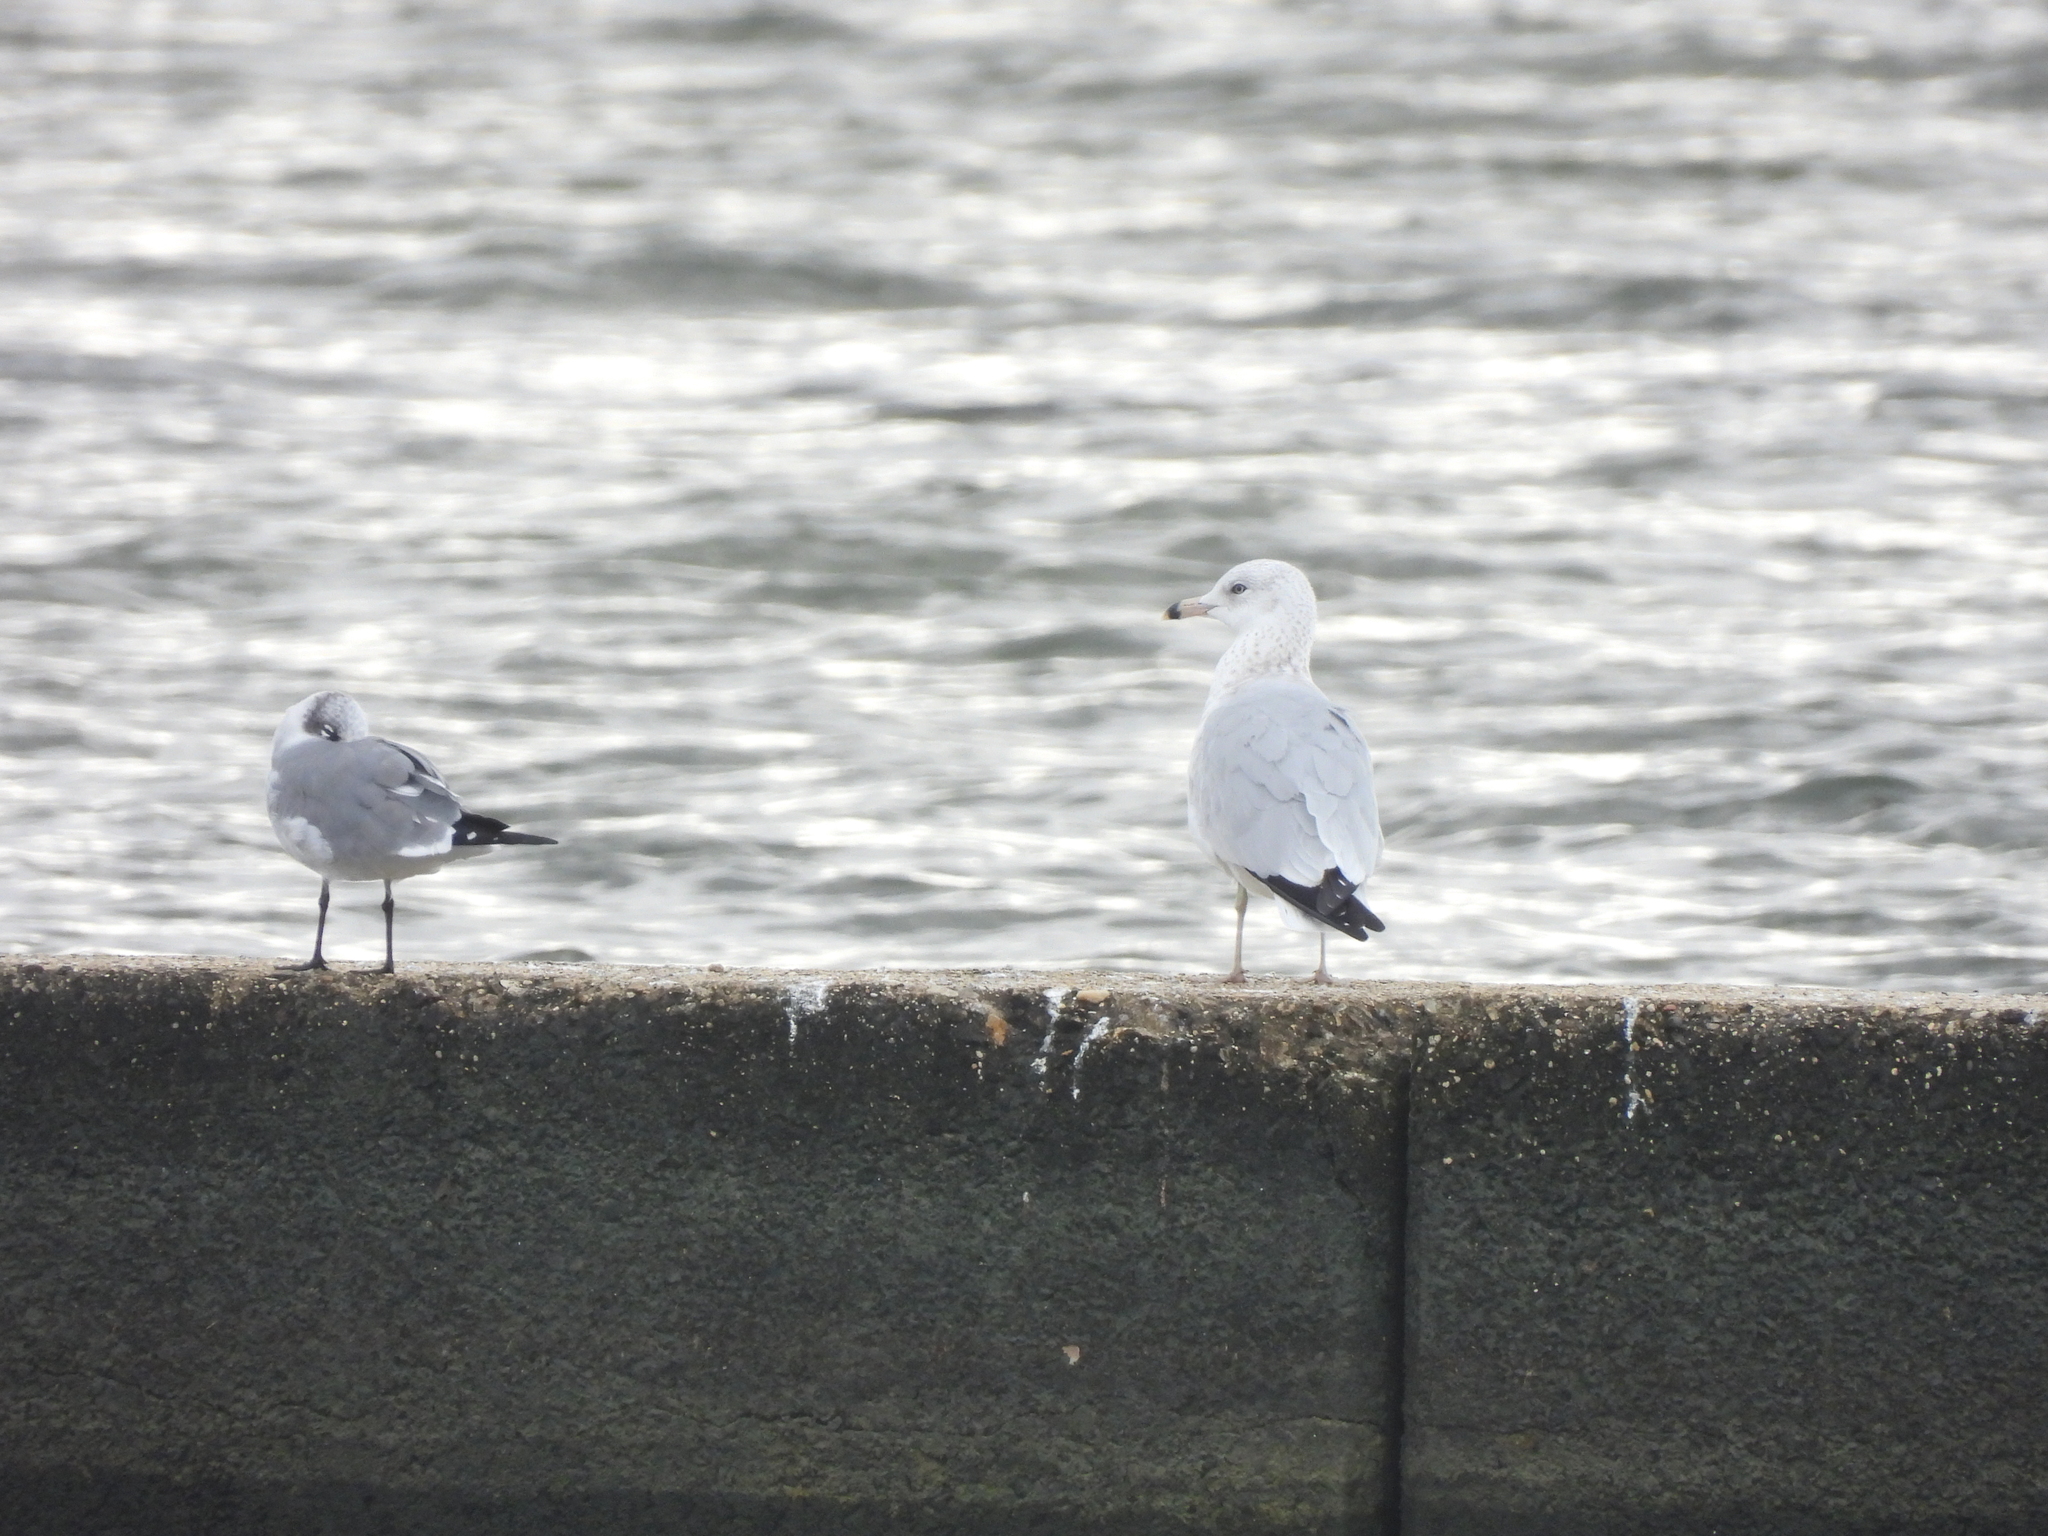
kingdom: Animalia
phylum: Chordata
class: Aves
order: Charadriiformes
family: Laridae
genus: Larus
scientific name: Larus delawarensis
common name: Ring-billed gull
